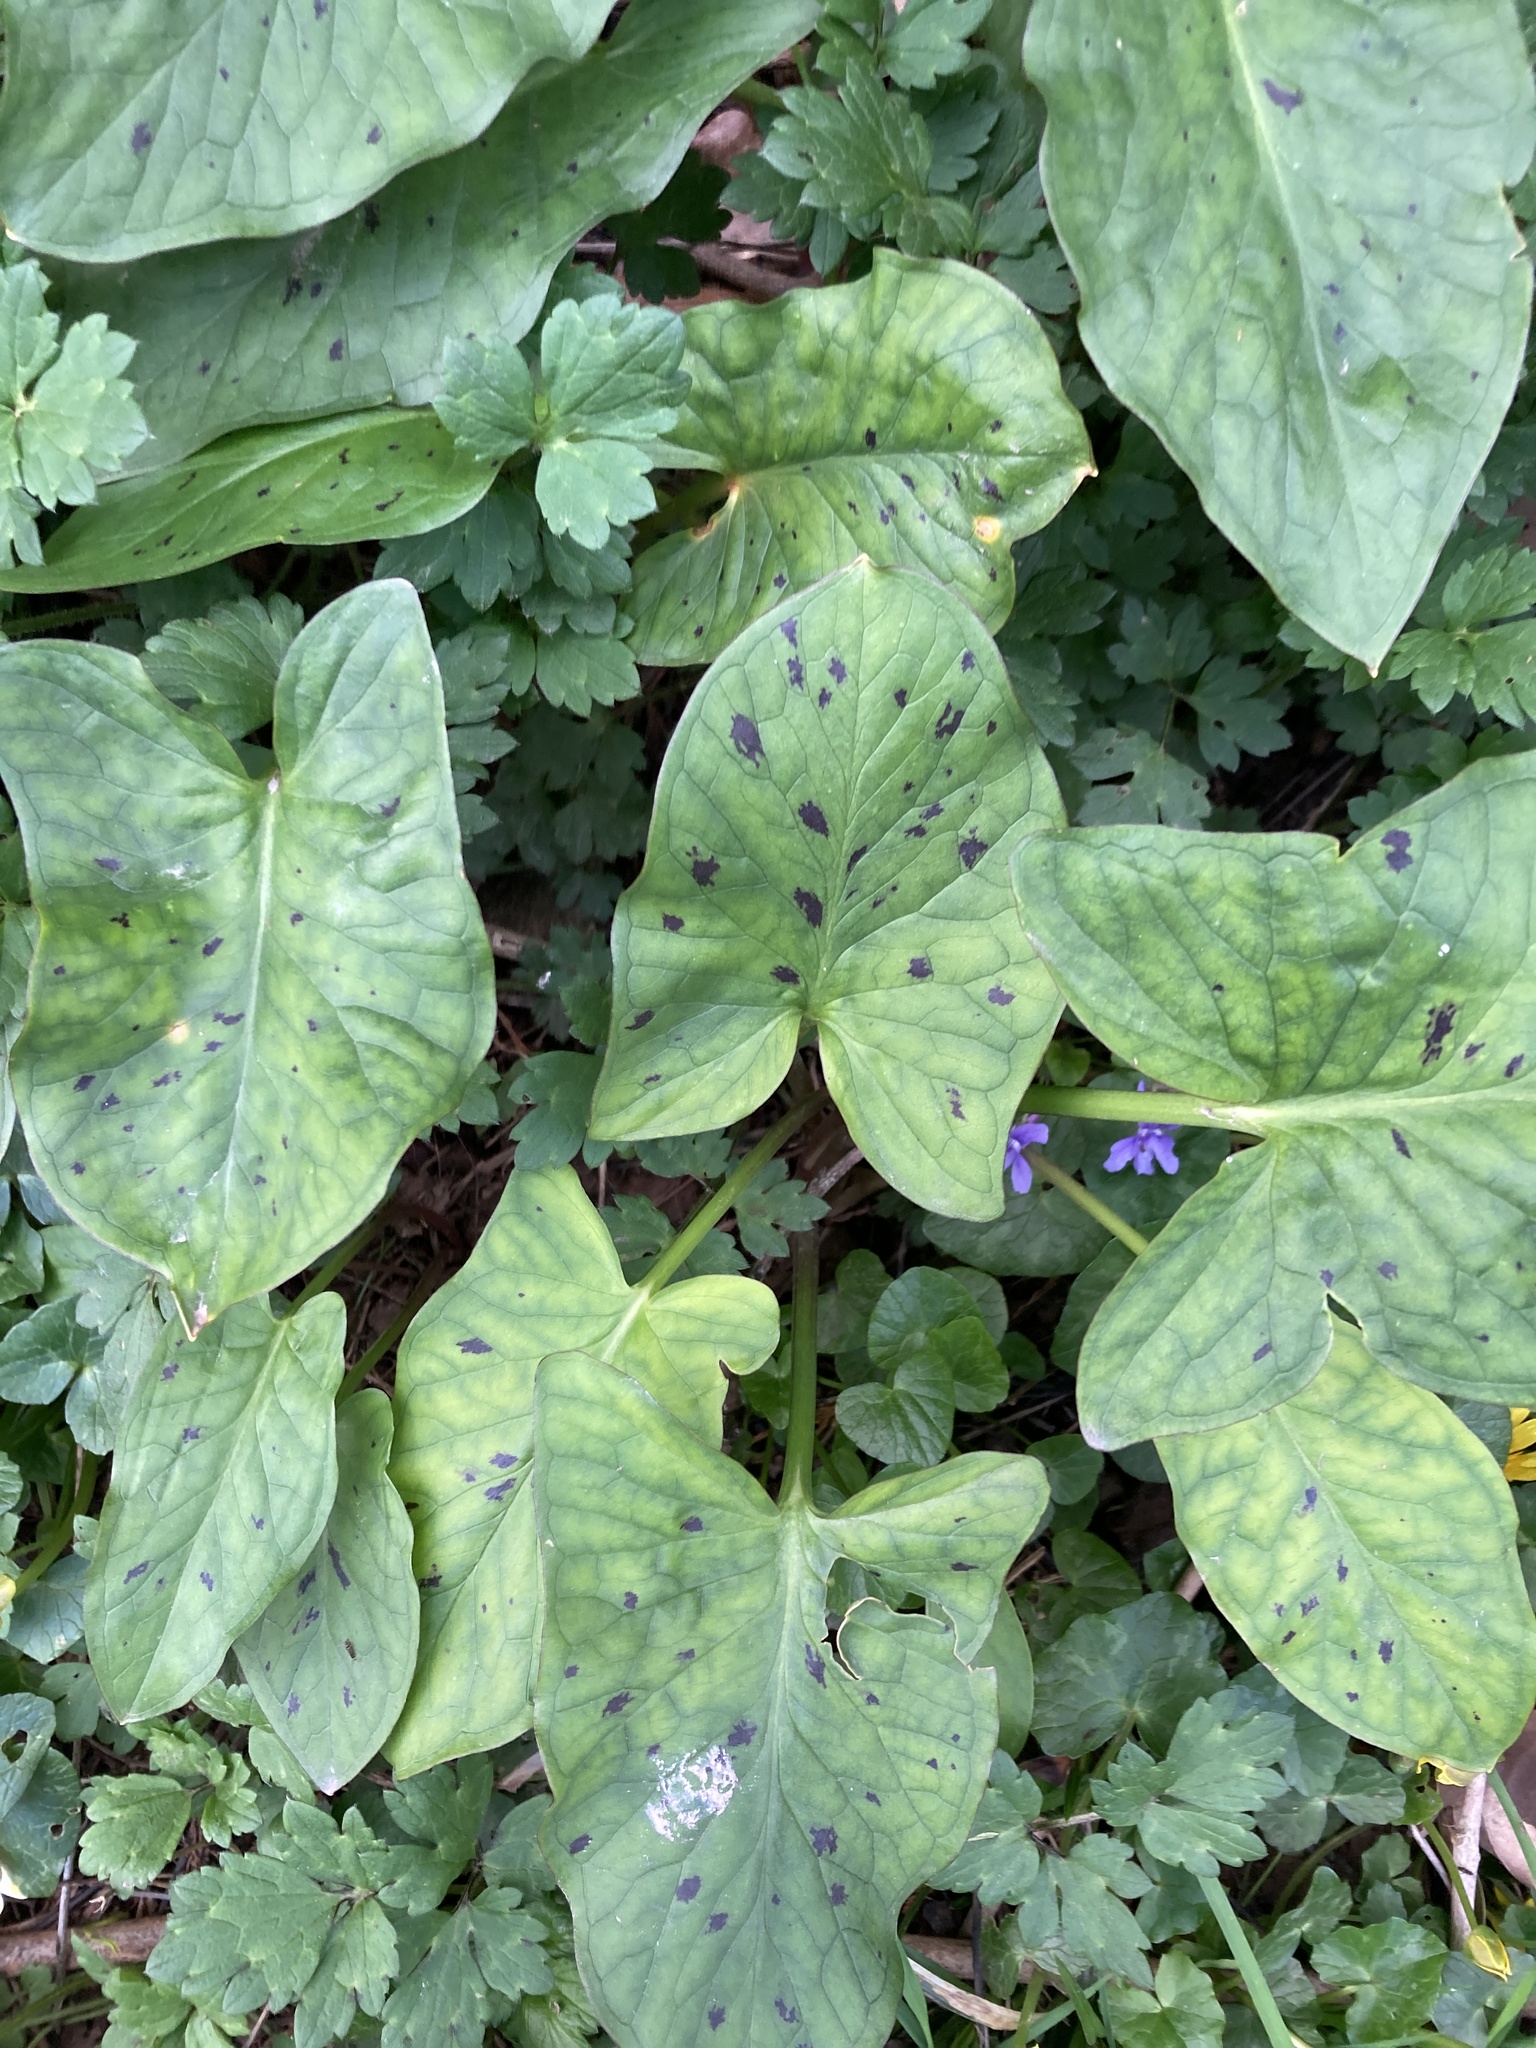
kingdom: Plantae
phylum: Tracheophyta
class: Liliopsida
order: Alismatales
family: Araceae
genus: Arum
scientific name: Arum maculatum
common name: Lords-and-ladies
